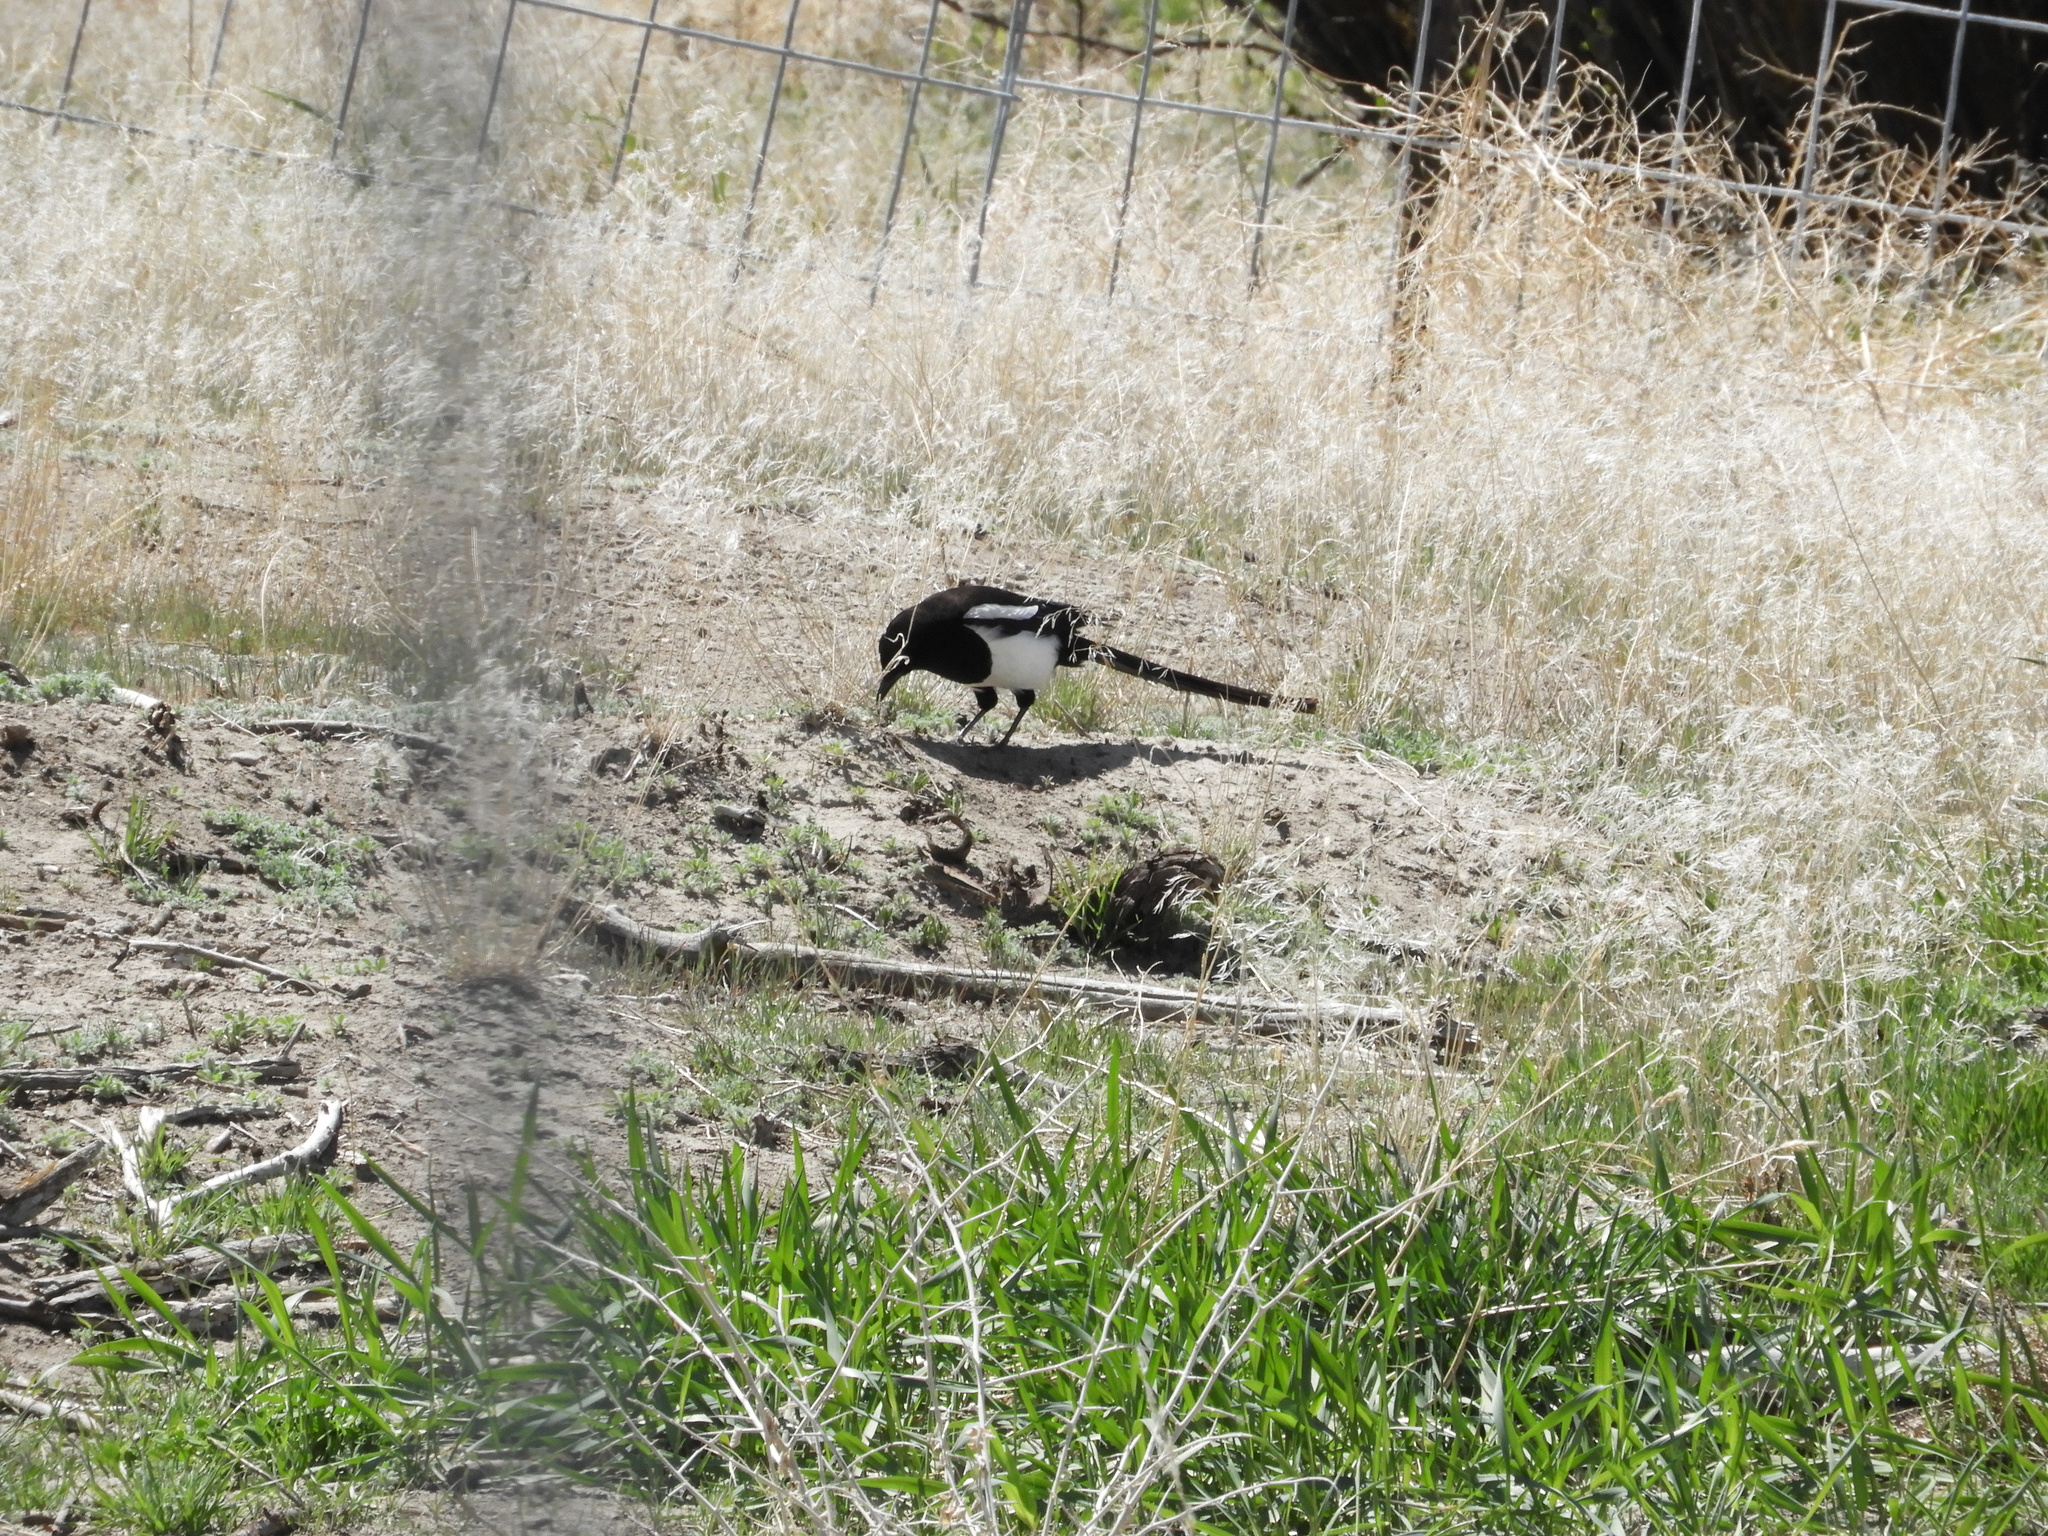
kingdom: Animalia
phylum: Chordata
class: Aves
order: Passeriformes
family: Corvidae
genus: Pica
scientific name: Pica hudsonia
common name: Black-billed magpie
